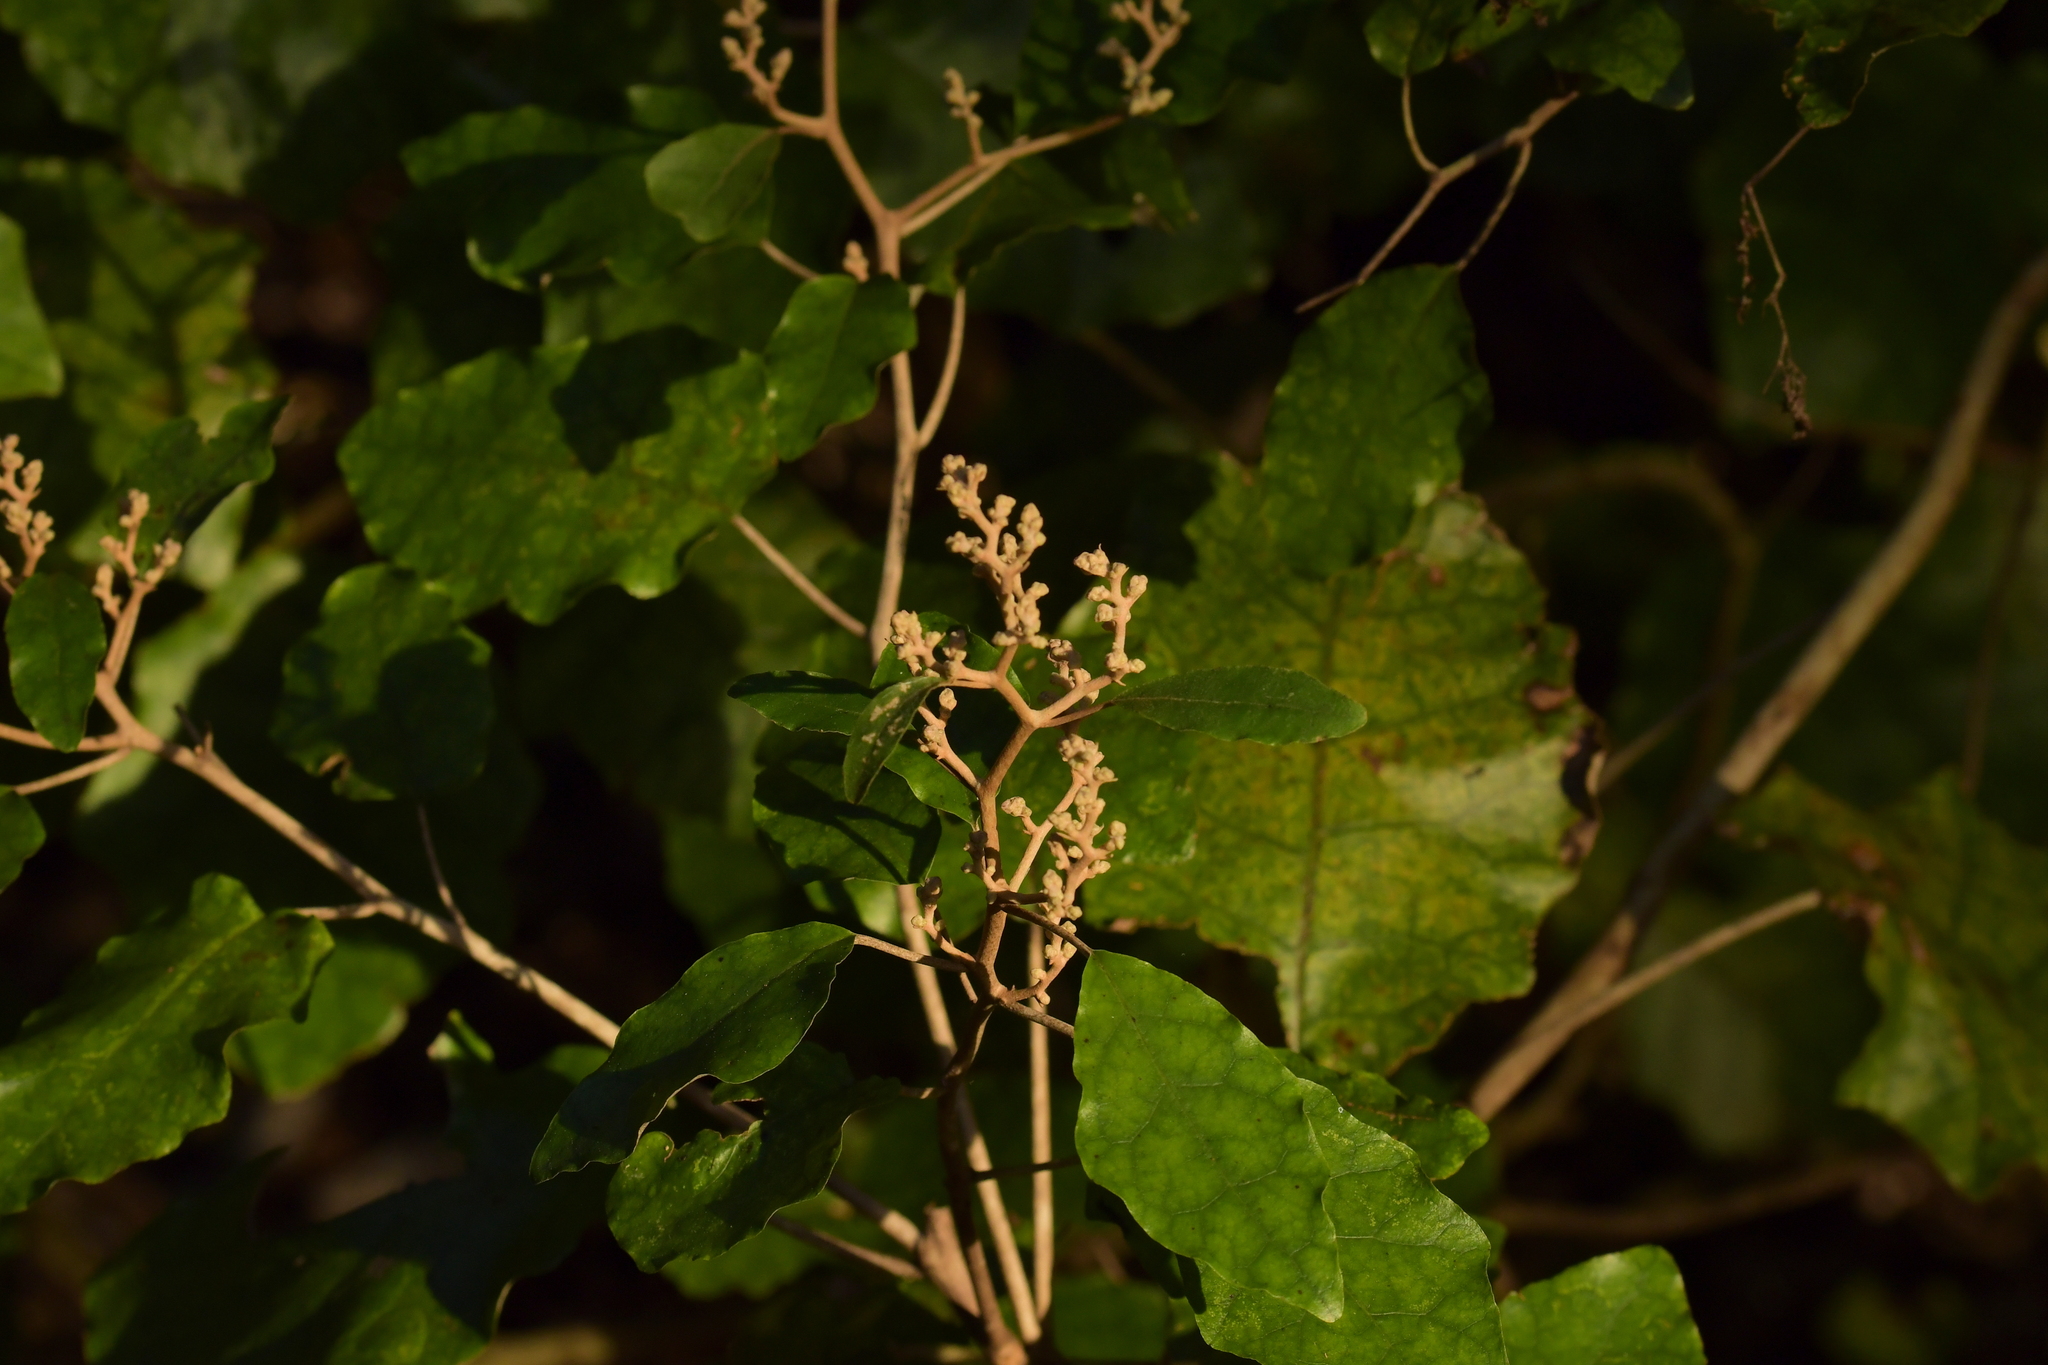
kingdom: Plantae
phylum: Tracheophyta
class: Magnoliopsida
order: Asterales
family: Asteraceae
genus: Brachyglottis
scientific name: Brachyglottis repanda
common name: Hedge ragwort
